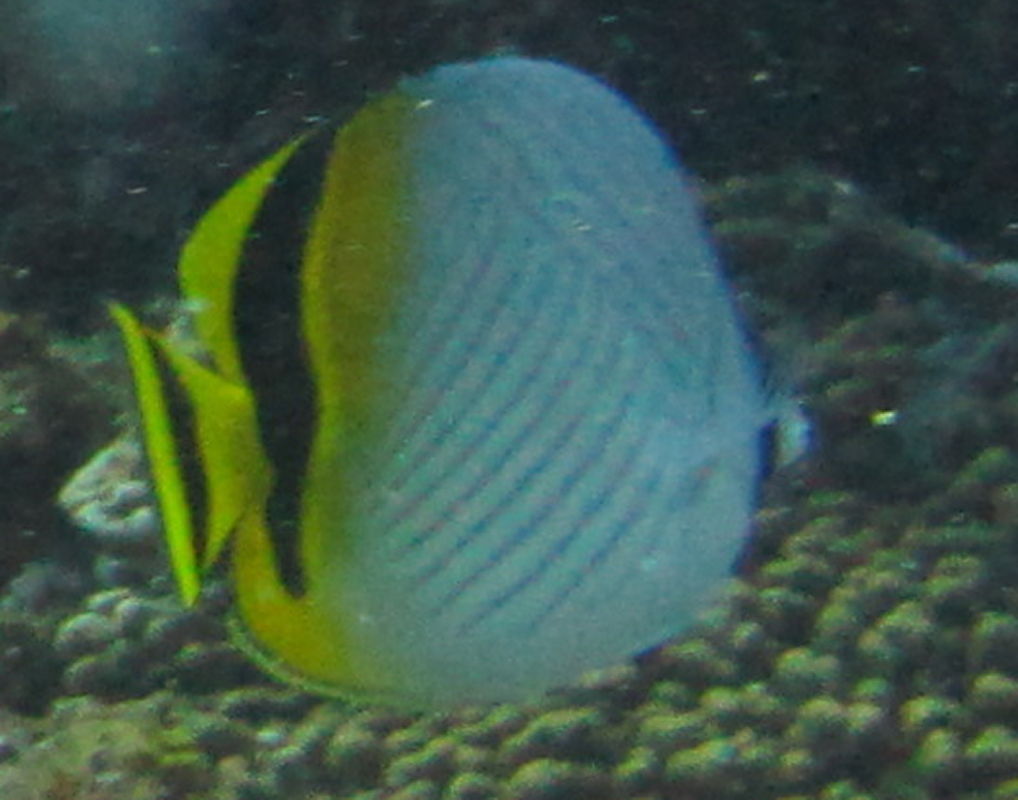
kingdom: Animalia
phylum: Chordata
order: Perciformes
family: Chaetodontidae
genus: Chaetodon
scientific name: Chaetodon vagabundus
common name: Vagabond butterflyfish
